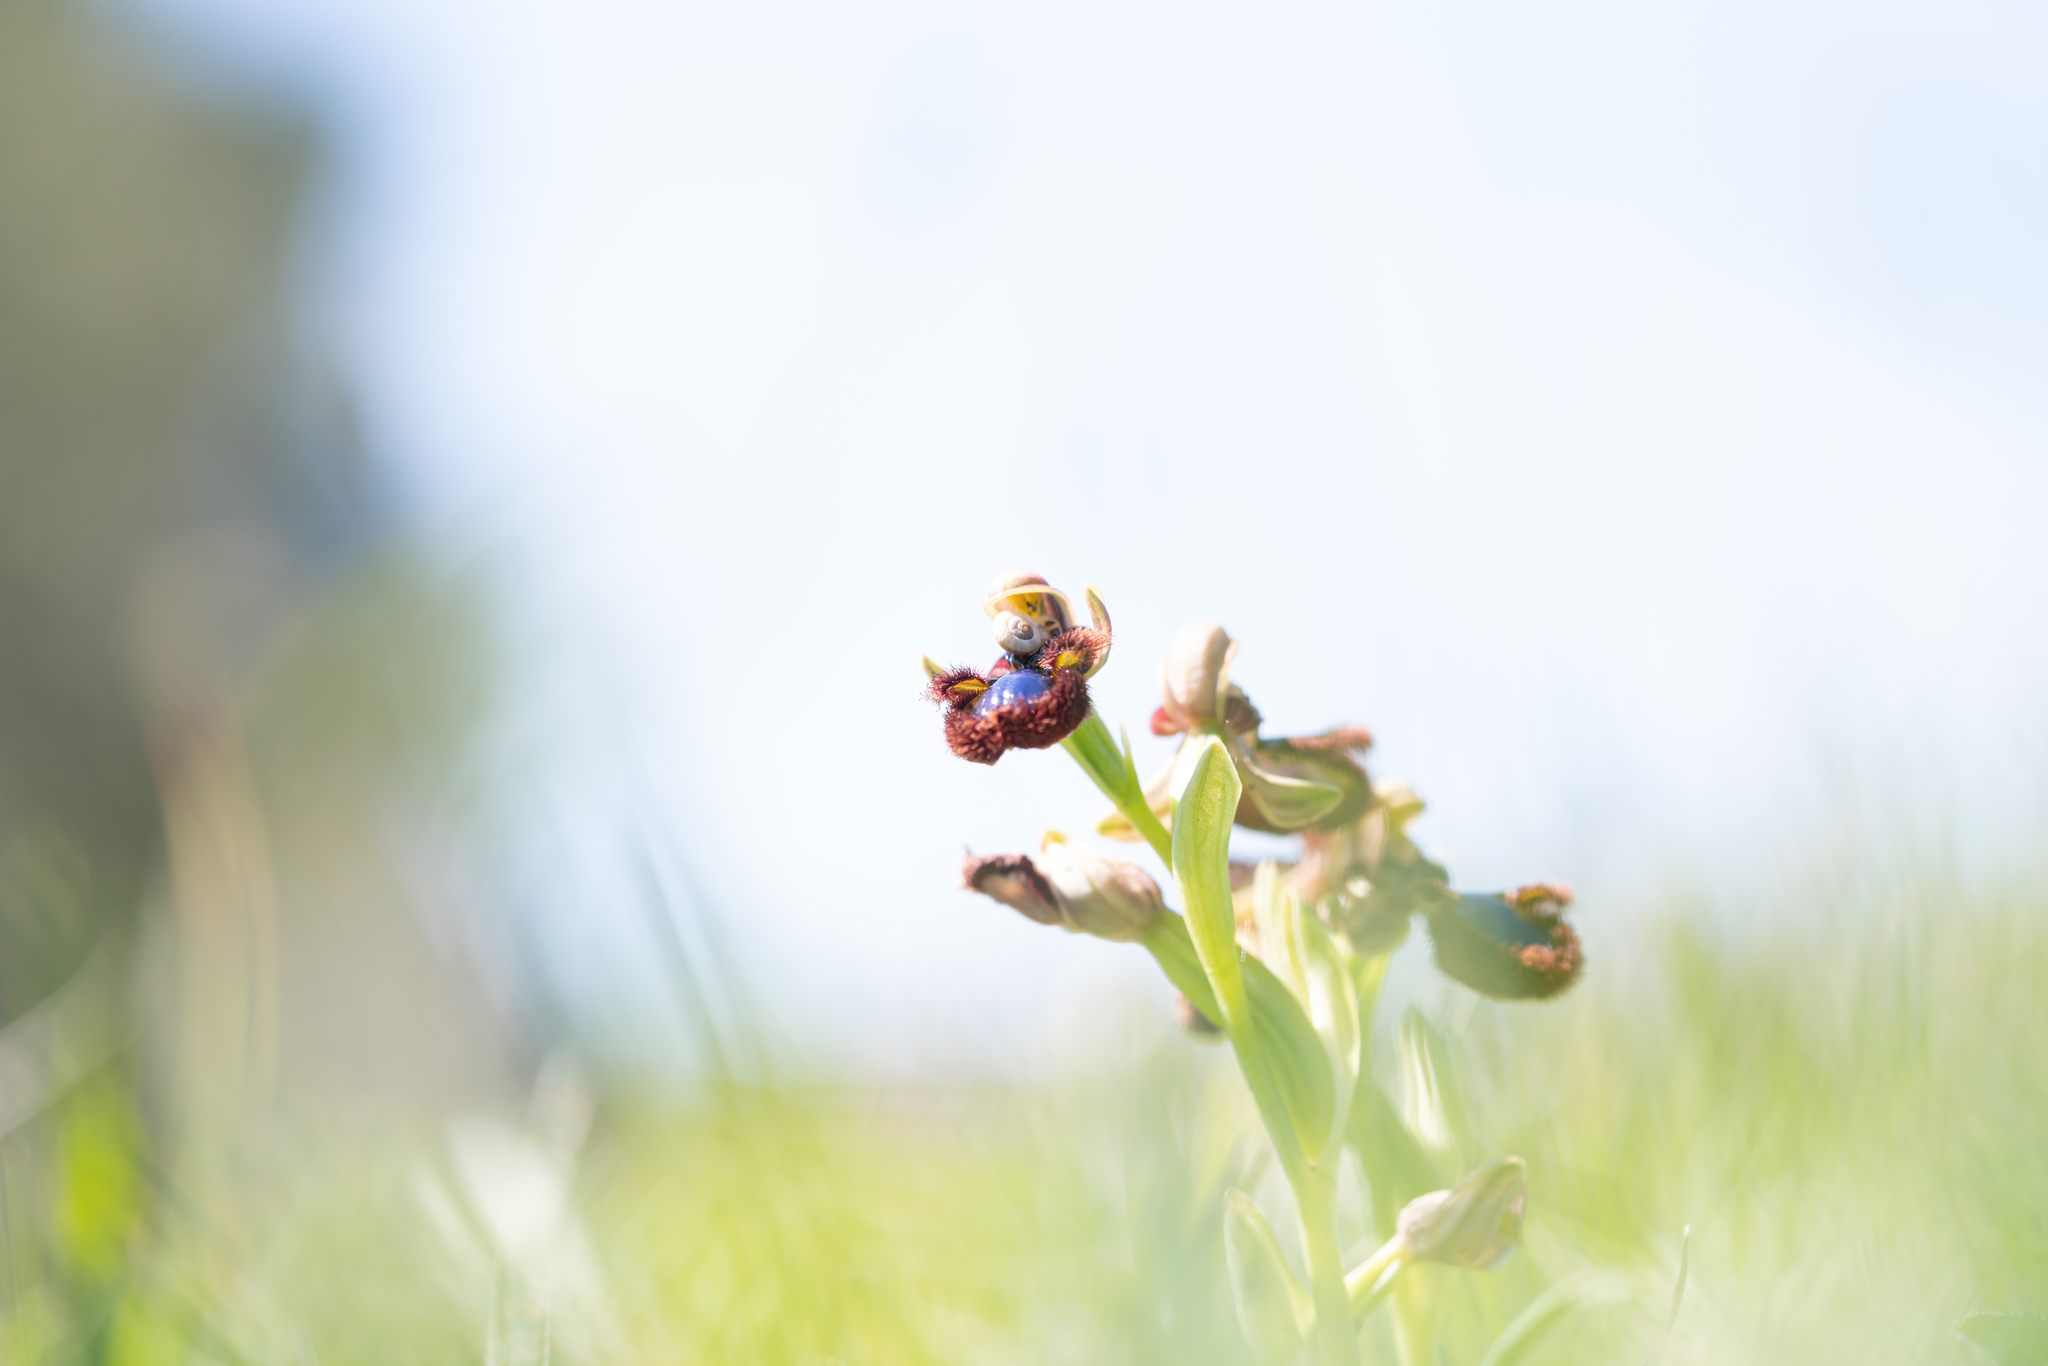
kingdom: Plantae
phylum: Tracheophyta
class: Liliopsida
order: Asparagales
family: Orchidaceae
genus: Ophrys
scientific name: Ophrys speculum
